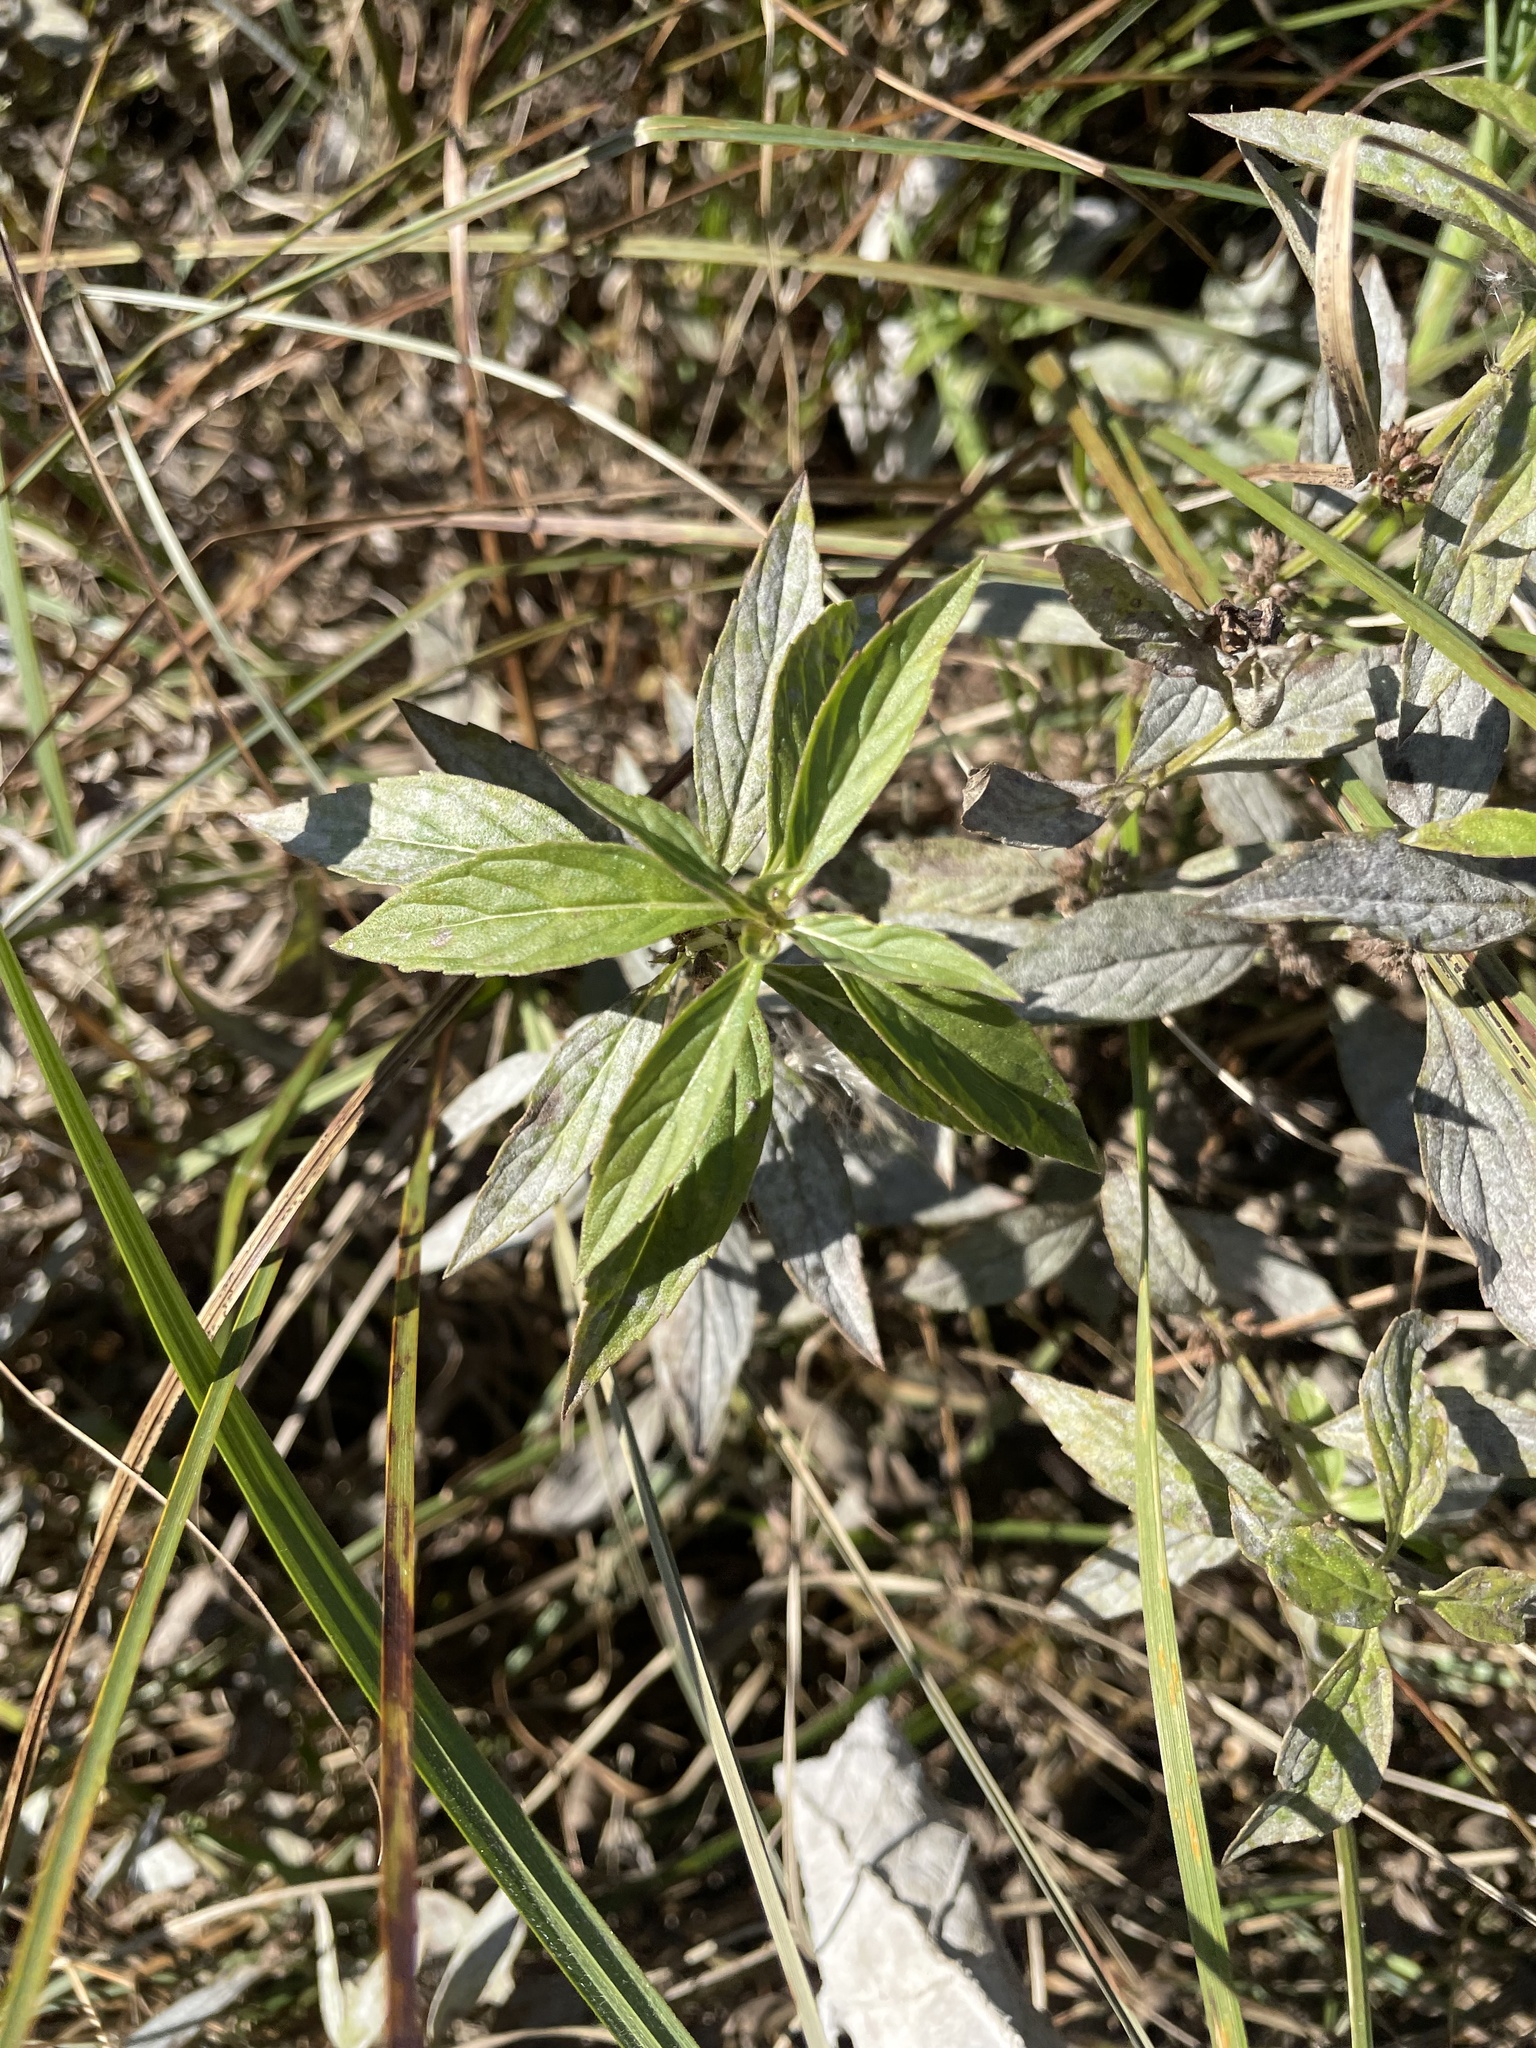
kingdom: Plantae
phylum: Tracheophyta
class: Magnoliopsida
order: Lamiales
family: Lamiaceae
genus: Mentha
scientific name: Mentha canadensis
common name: American corn mint
